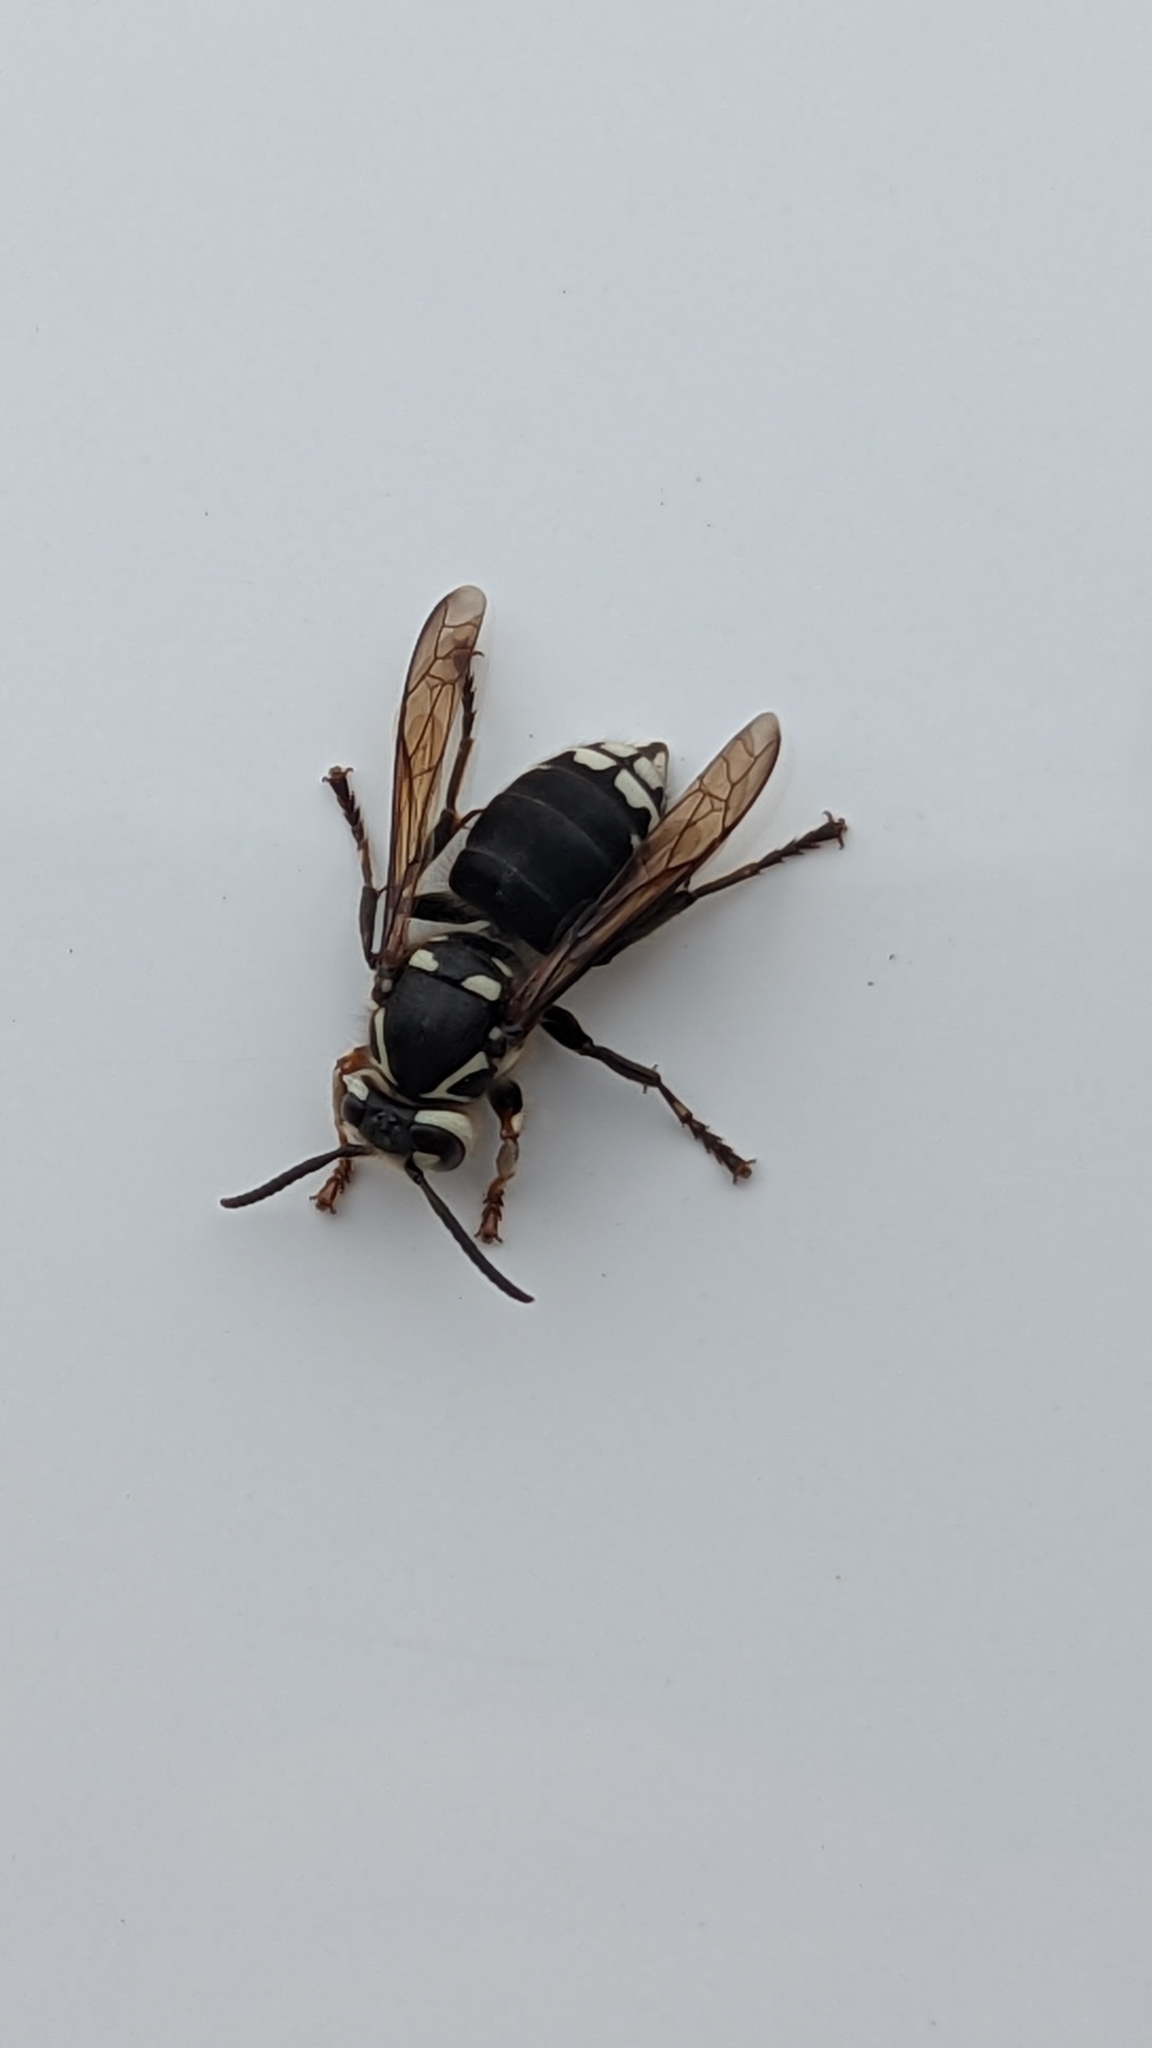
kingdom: Animalia
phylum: Arthropoda
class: Insecta
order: Hymenoptera
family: Vespidae
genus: Dolichovespula
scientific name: Dolichovespula maculata
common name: Bald-faced hornet
